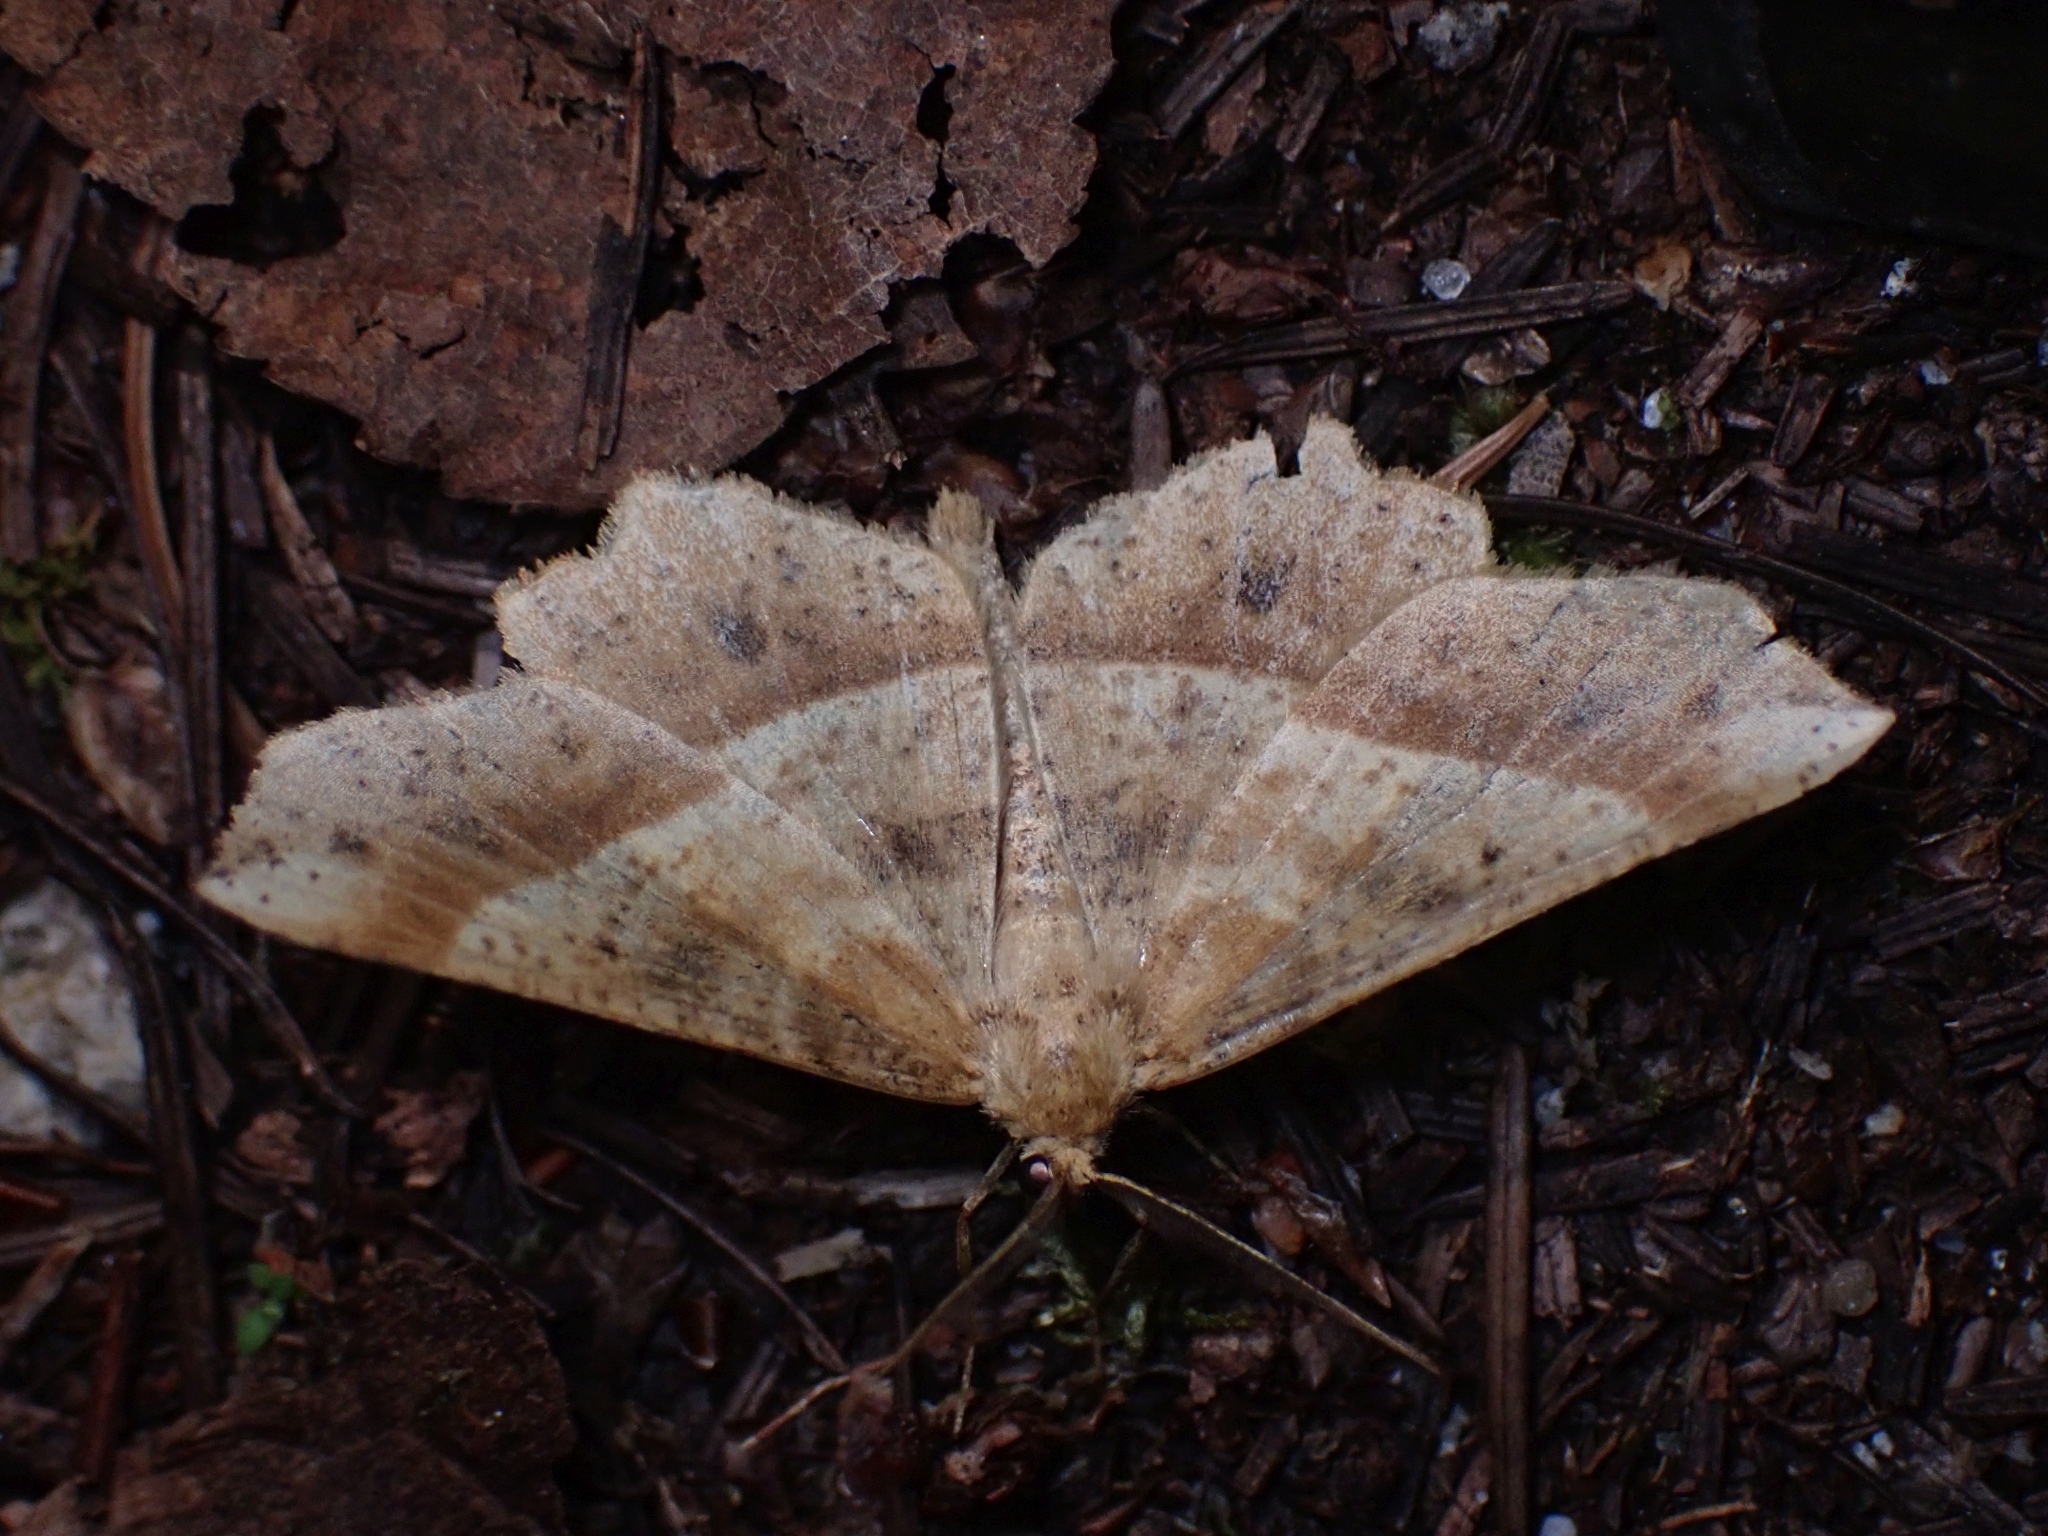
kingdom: Animalia
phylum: Arthropoda
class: Insecta
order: Lepidoptera
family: Geometridae
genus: Euchlaena
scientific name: Euchlaena tigrinaria
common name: Mottled euchlaena moth
